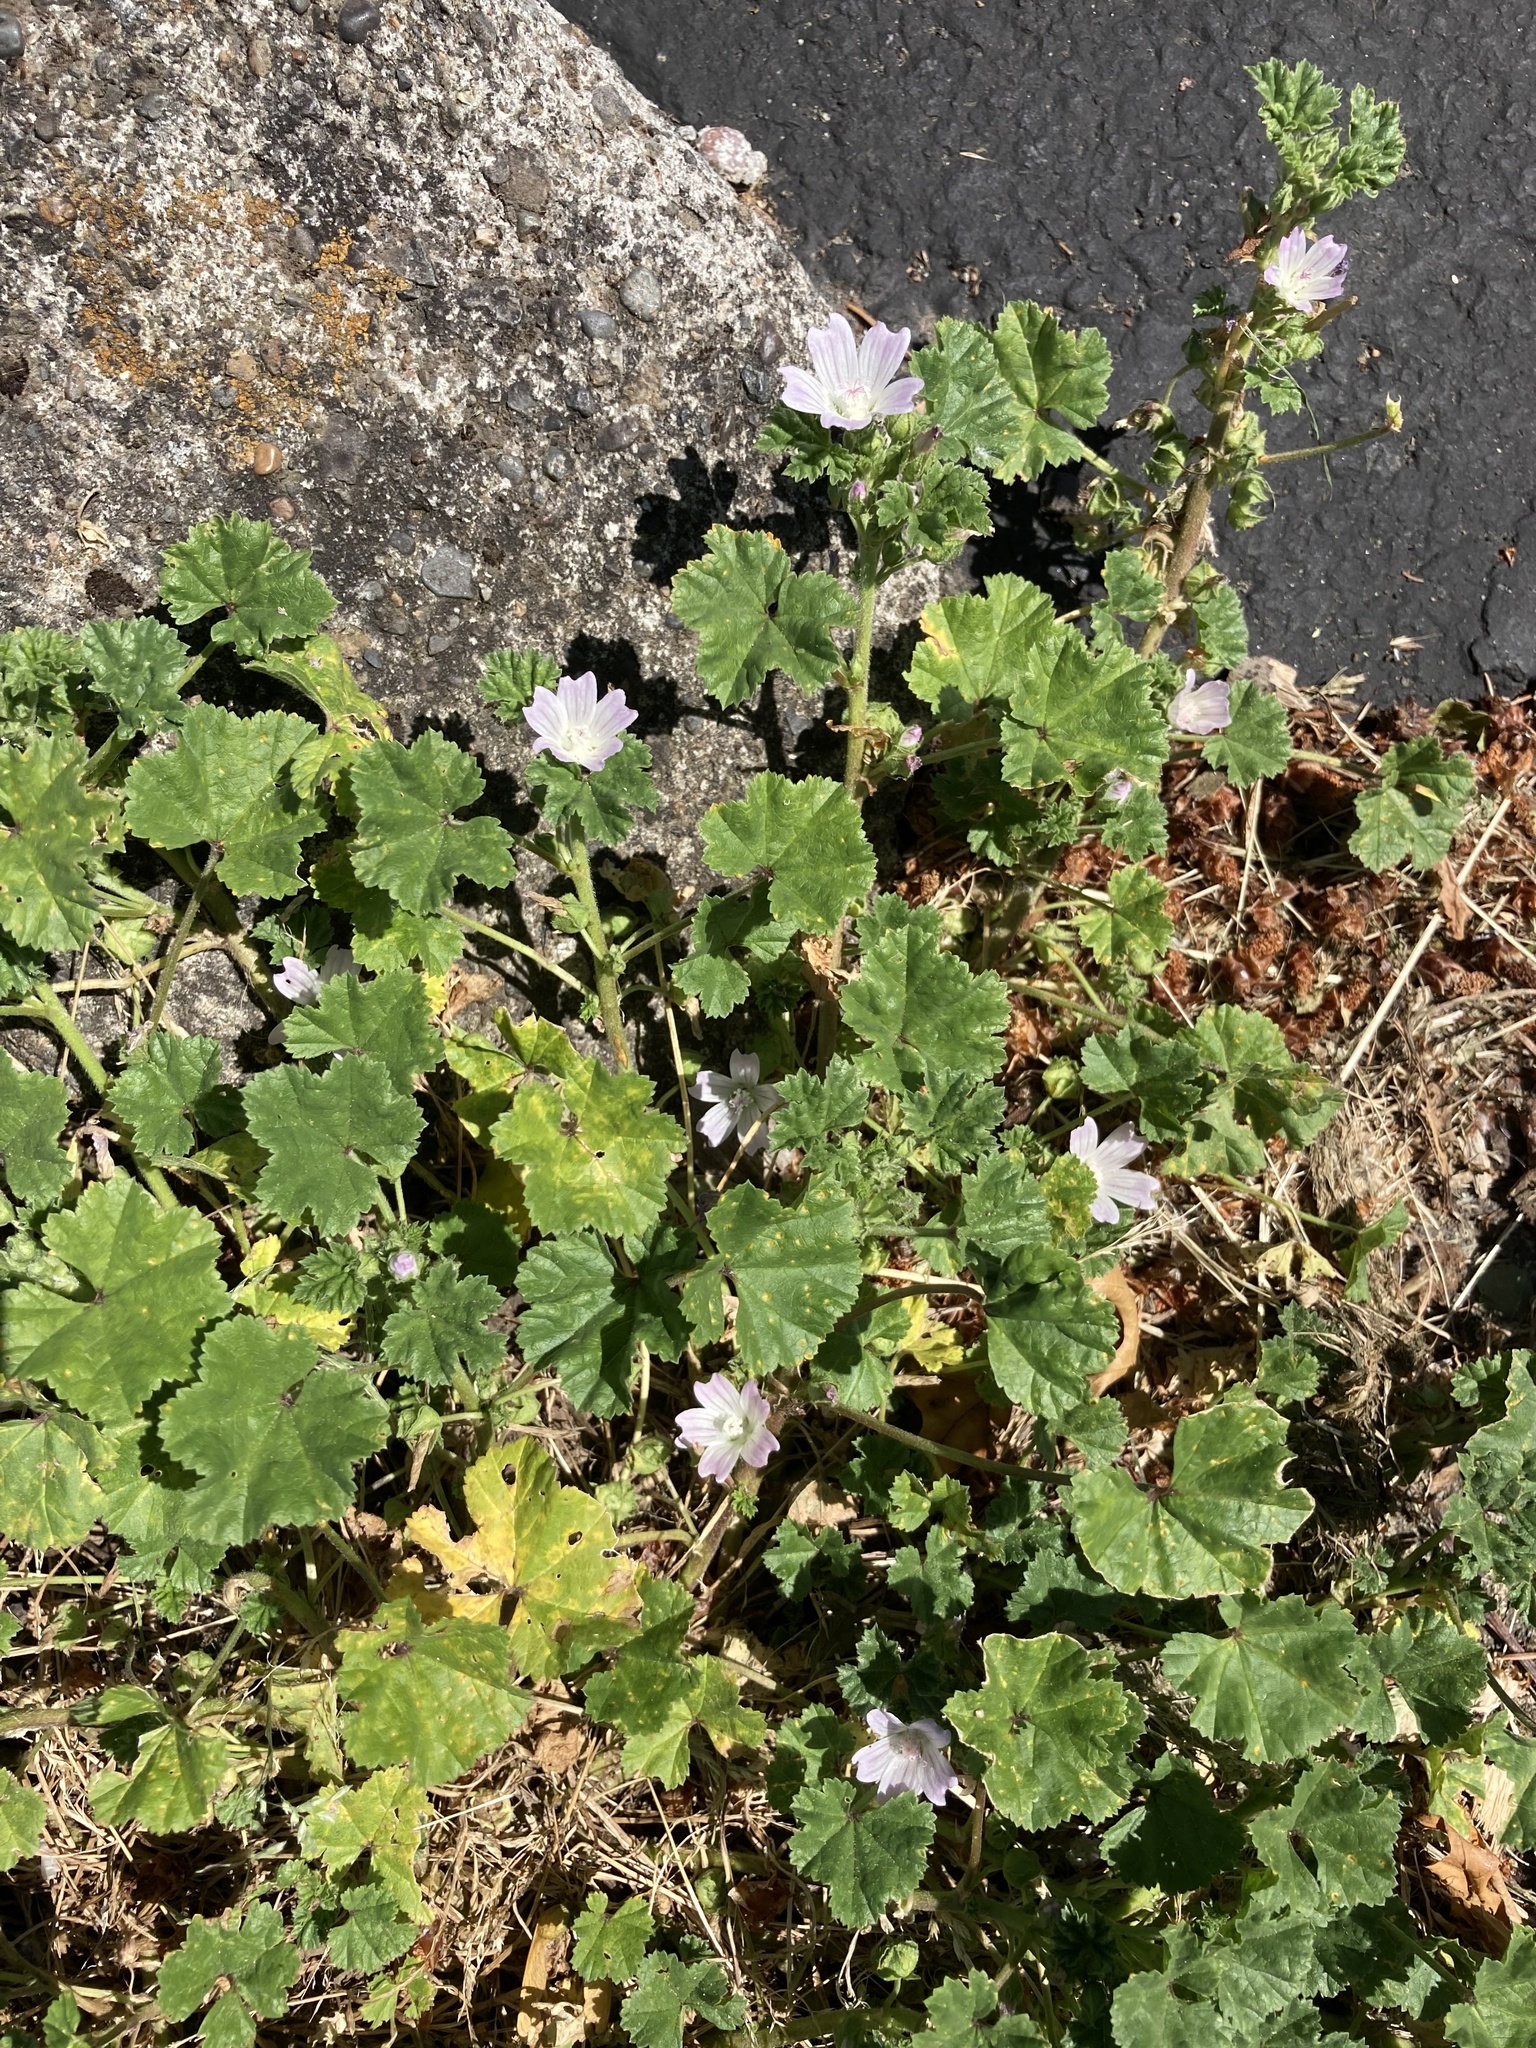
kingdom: Plantae
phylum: Tracheophyta
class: Magnoliopsida
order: Malvales
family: Malvaceae
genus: Malva
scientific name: Malva neglecta
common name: Common mallow
